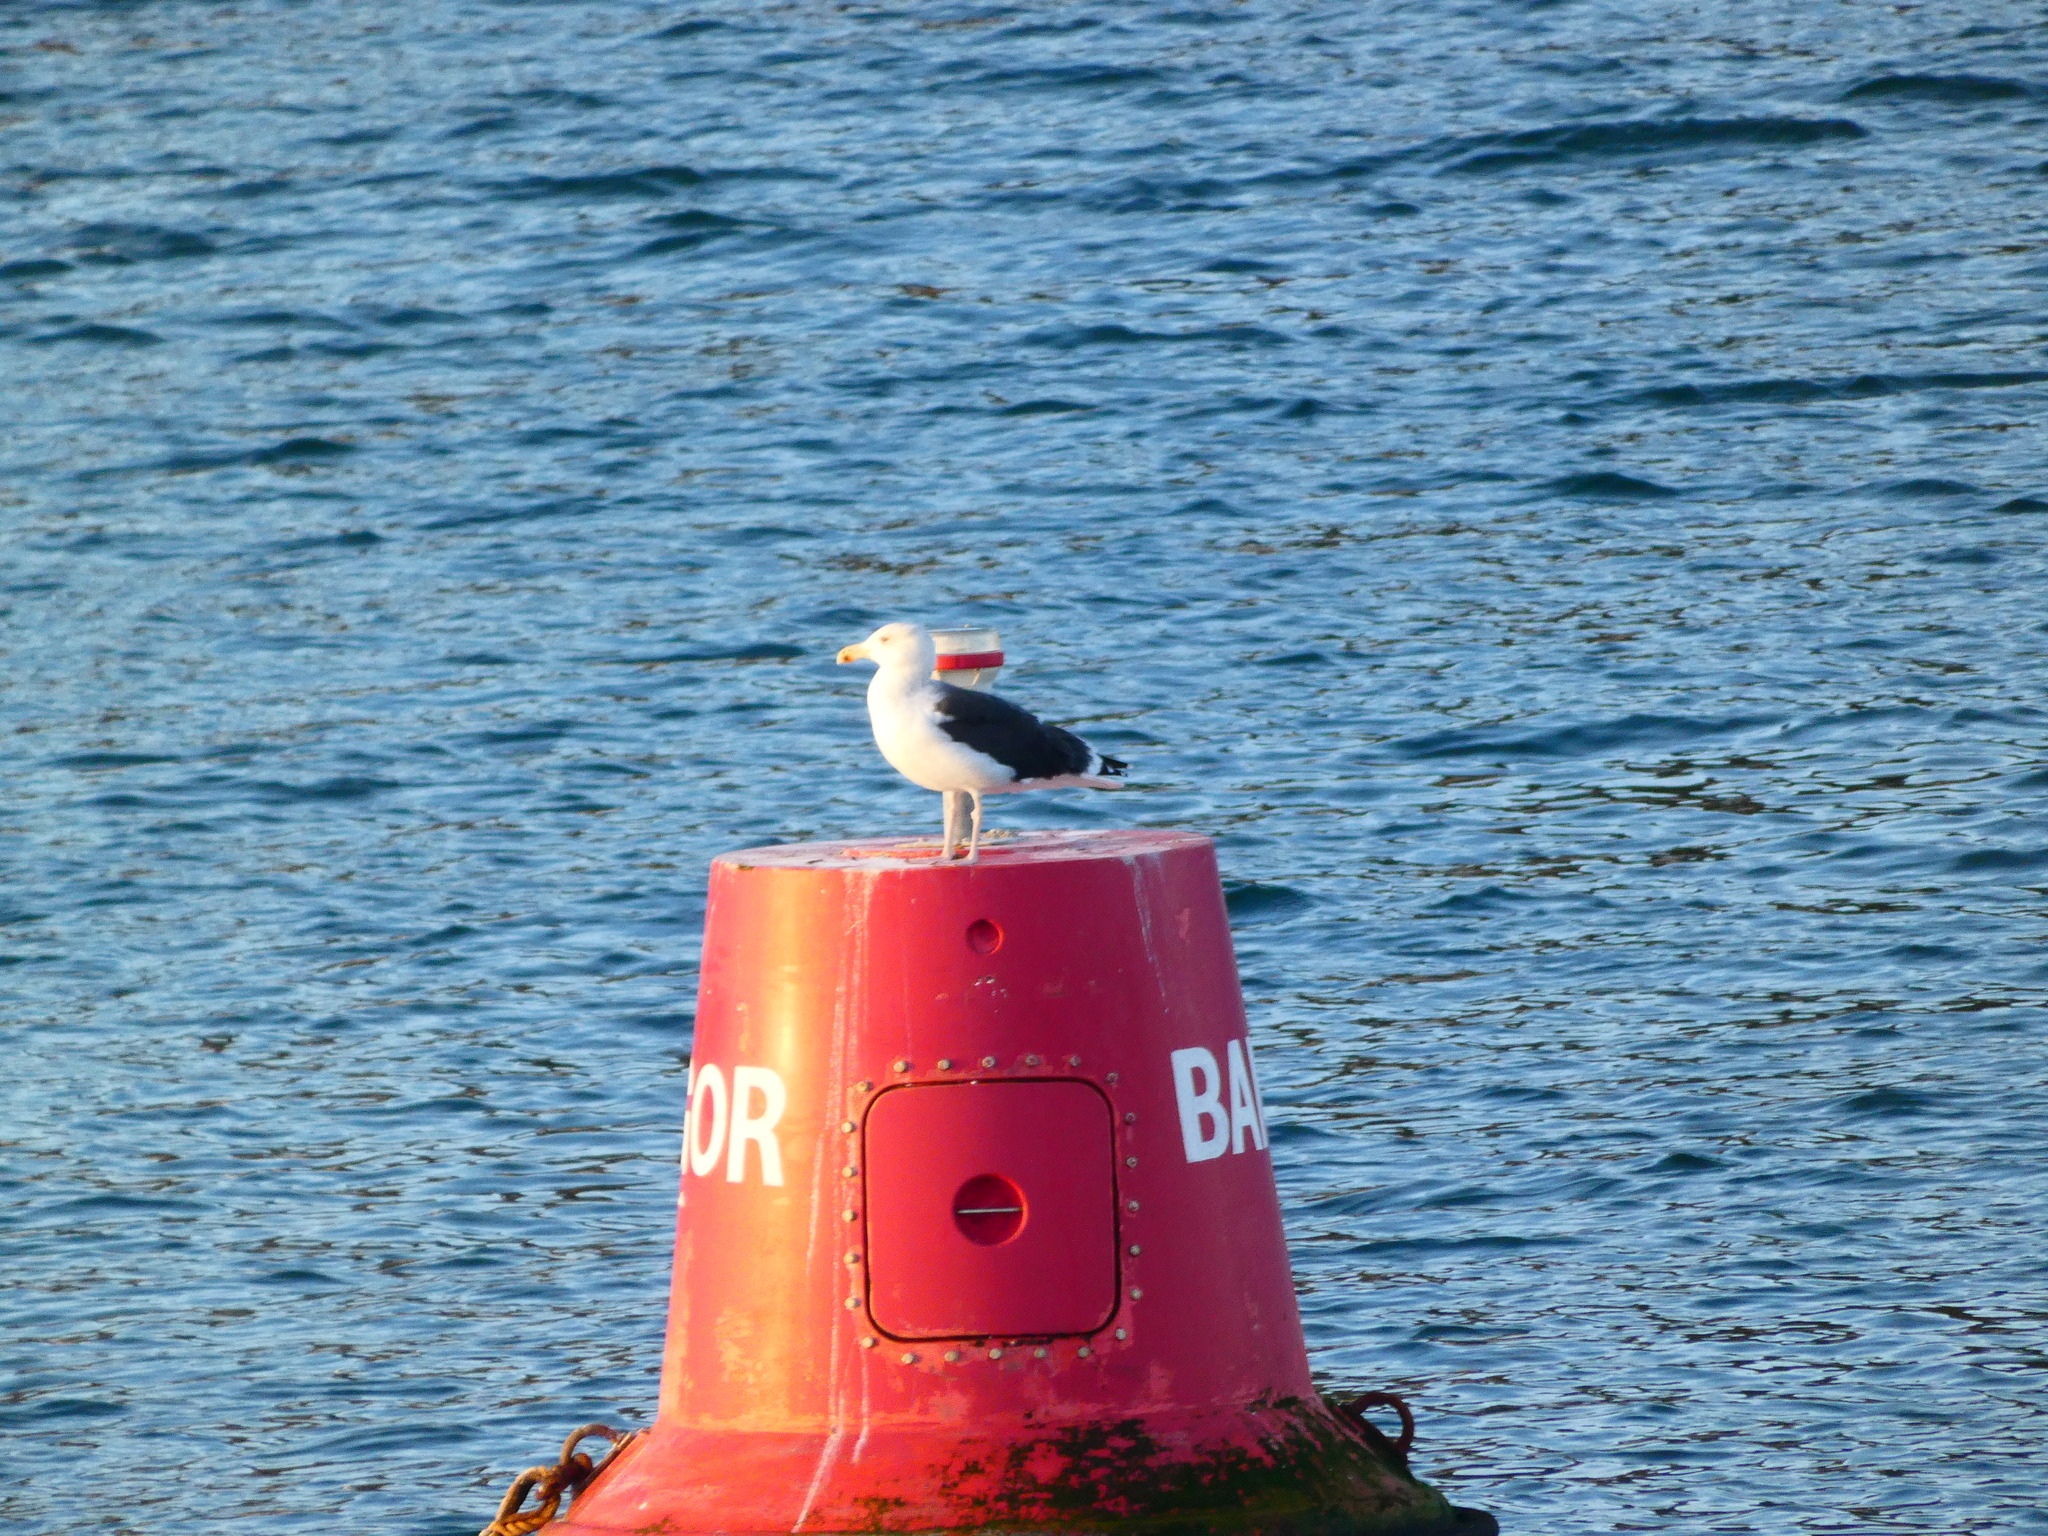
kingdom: Animalia
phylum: Chordata
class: Aves
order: Charadriiformes
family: Laridae
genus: Larus
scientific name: Larus marinus
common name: Great black-backed gull
